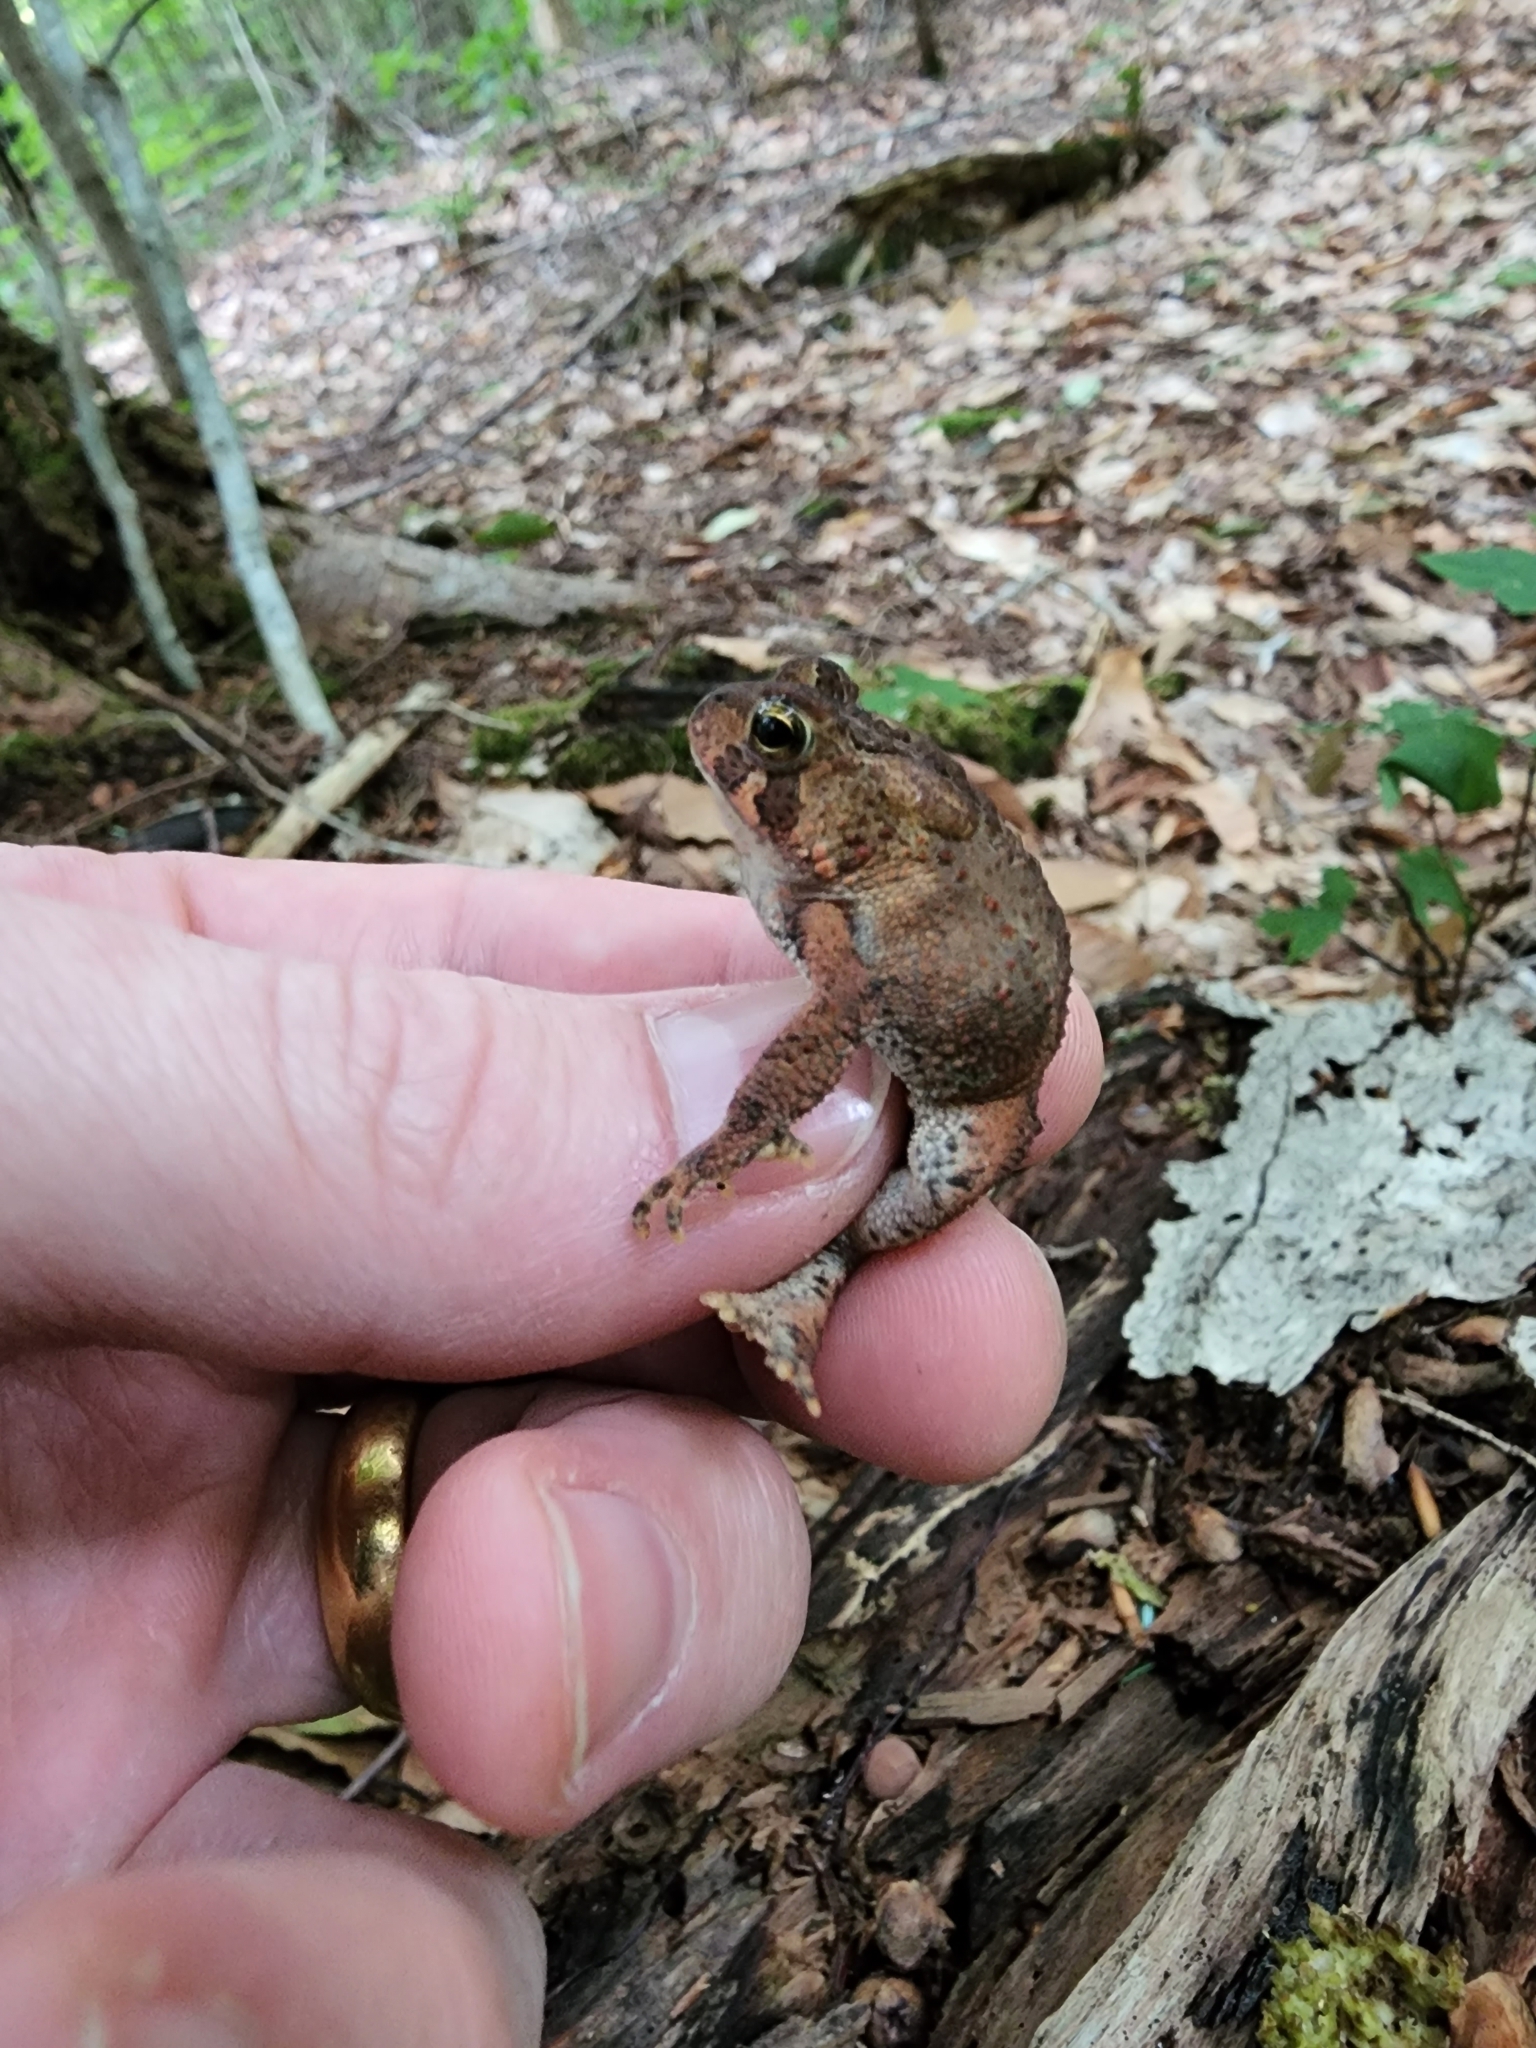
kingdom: Animalia
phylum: Chordata
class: Amphibia
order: Anura
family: Bufonidae
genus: Anaxyrus
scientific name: Anaxyrus americanus
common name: American toad
